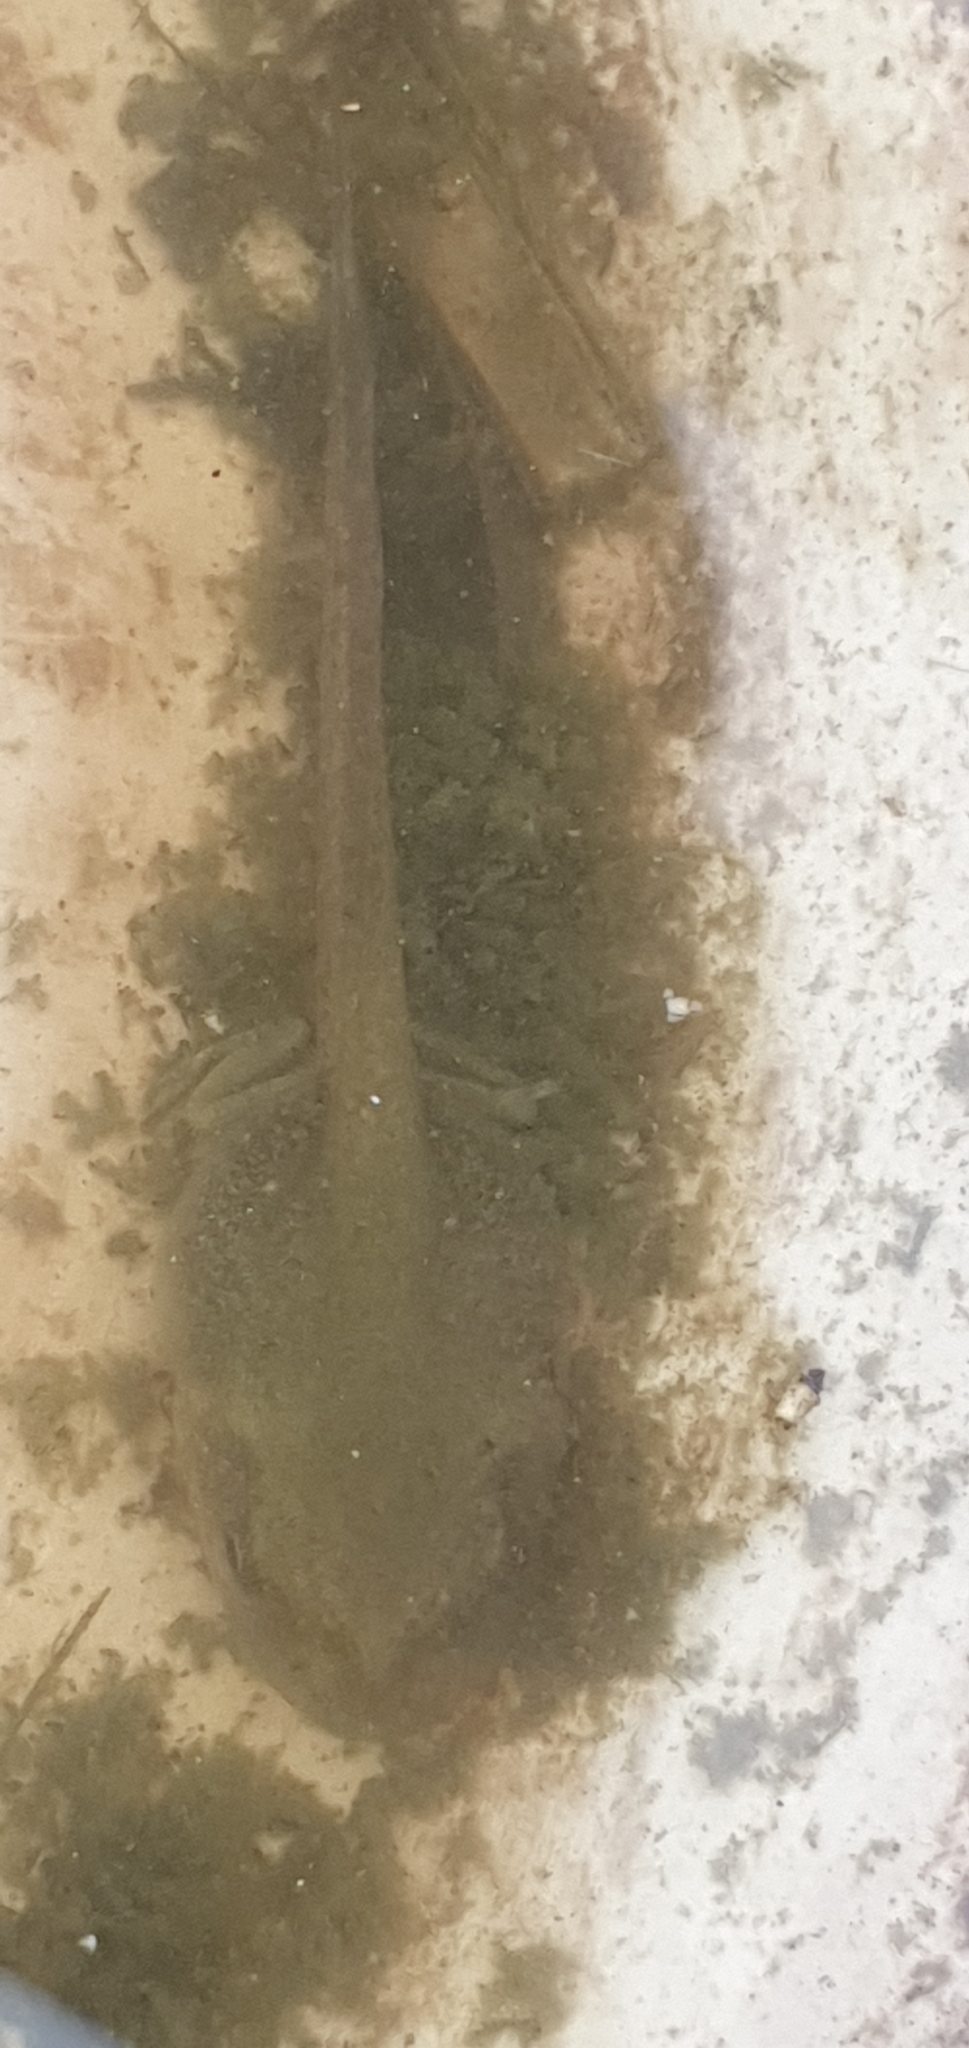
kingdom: Animalia
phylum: Chordata
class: Amphibia
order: Anura
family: Pelodryadidae
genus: Ranoidea
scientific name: Ranoidea caerulea
